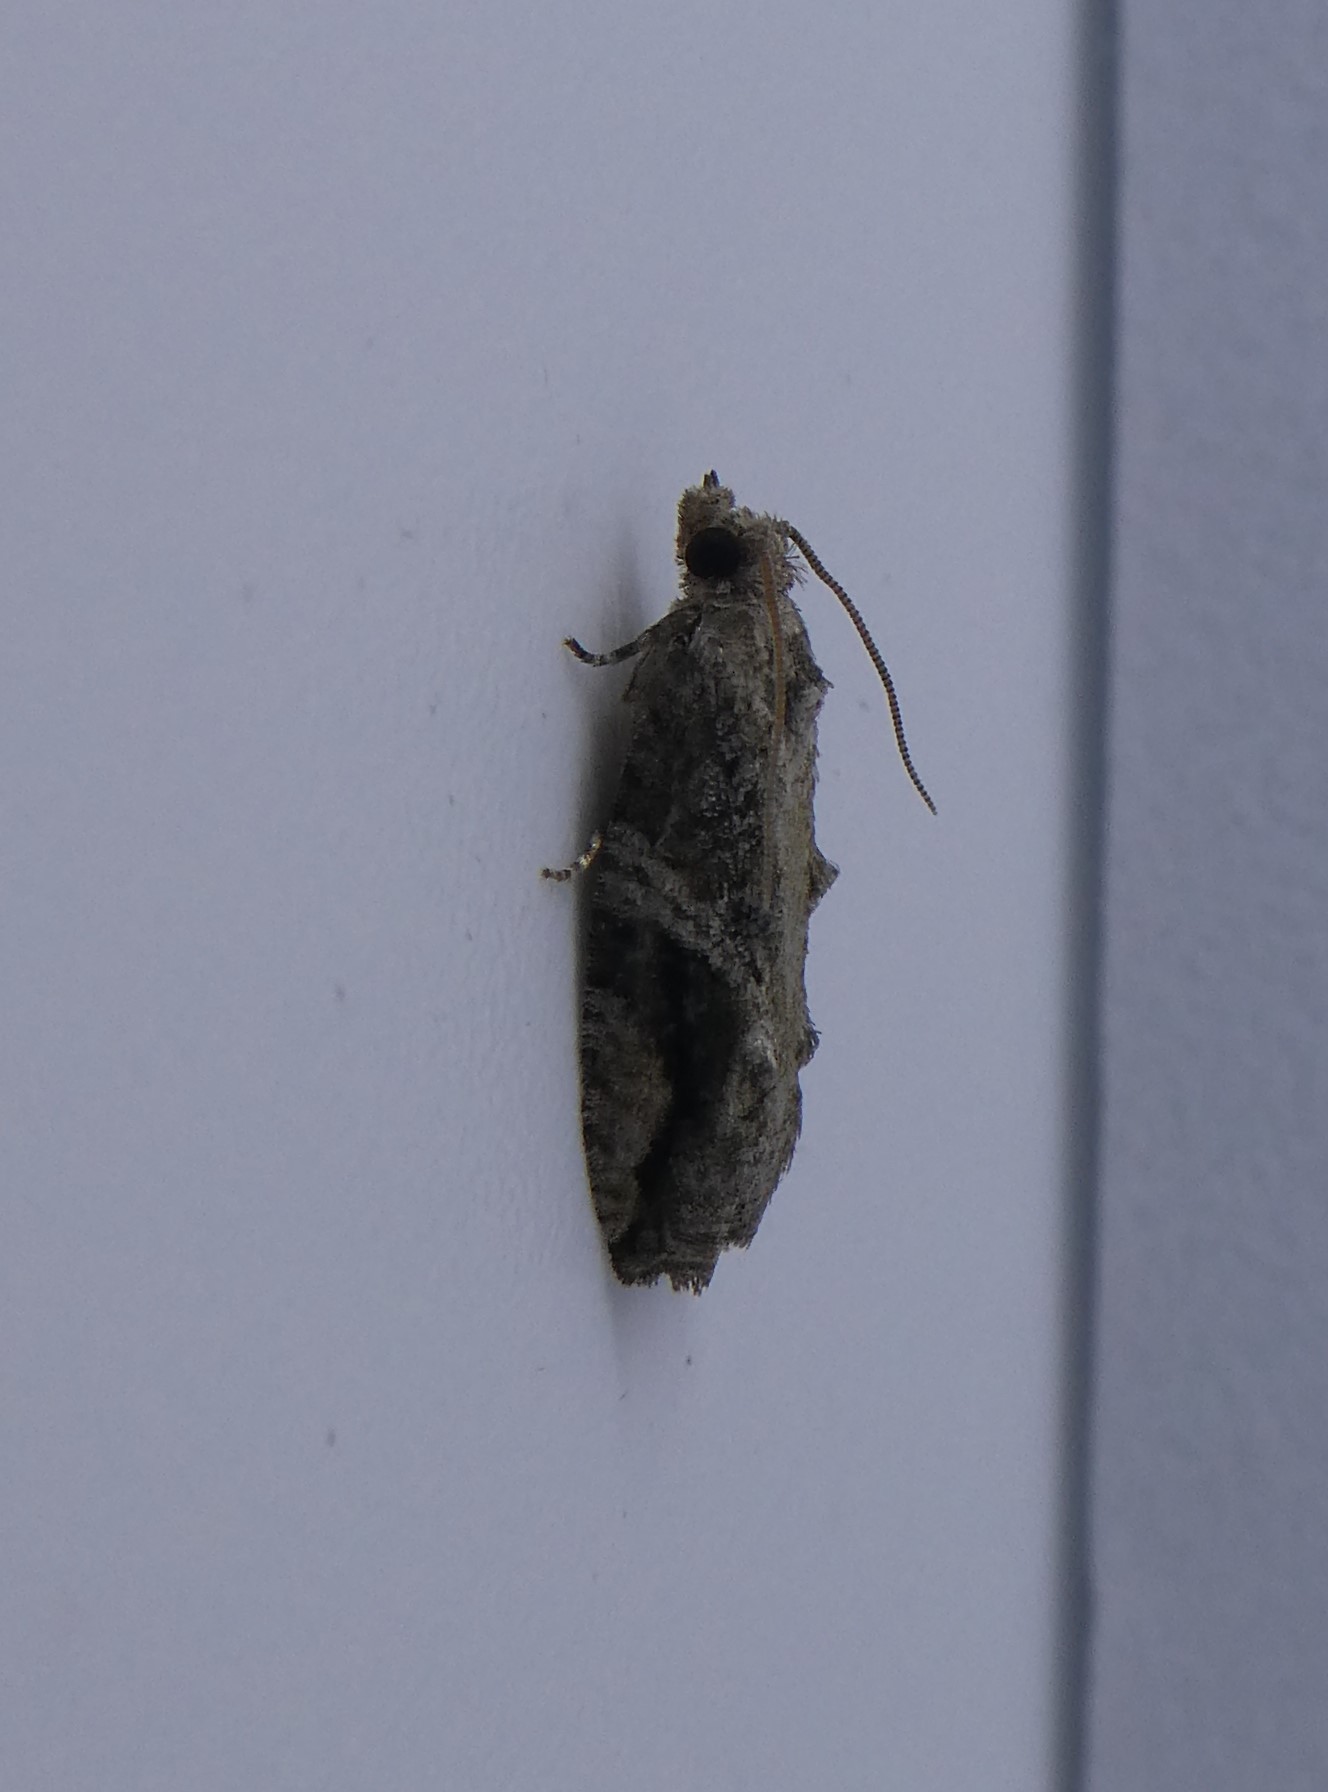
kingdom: Animalia
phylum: Arthropoda
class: Insecta
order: Lepidoptera
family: Tortricidae
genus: Proteoteras
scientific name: Proteoteras crescentana
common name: Black-crescent proteoteras moth
